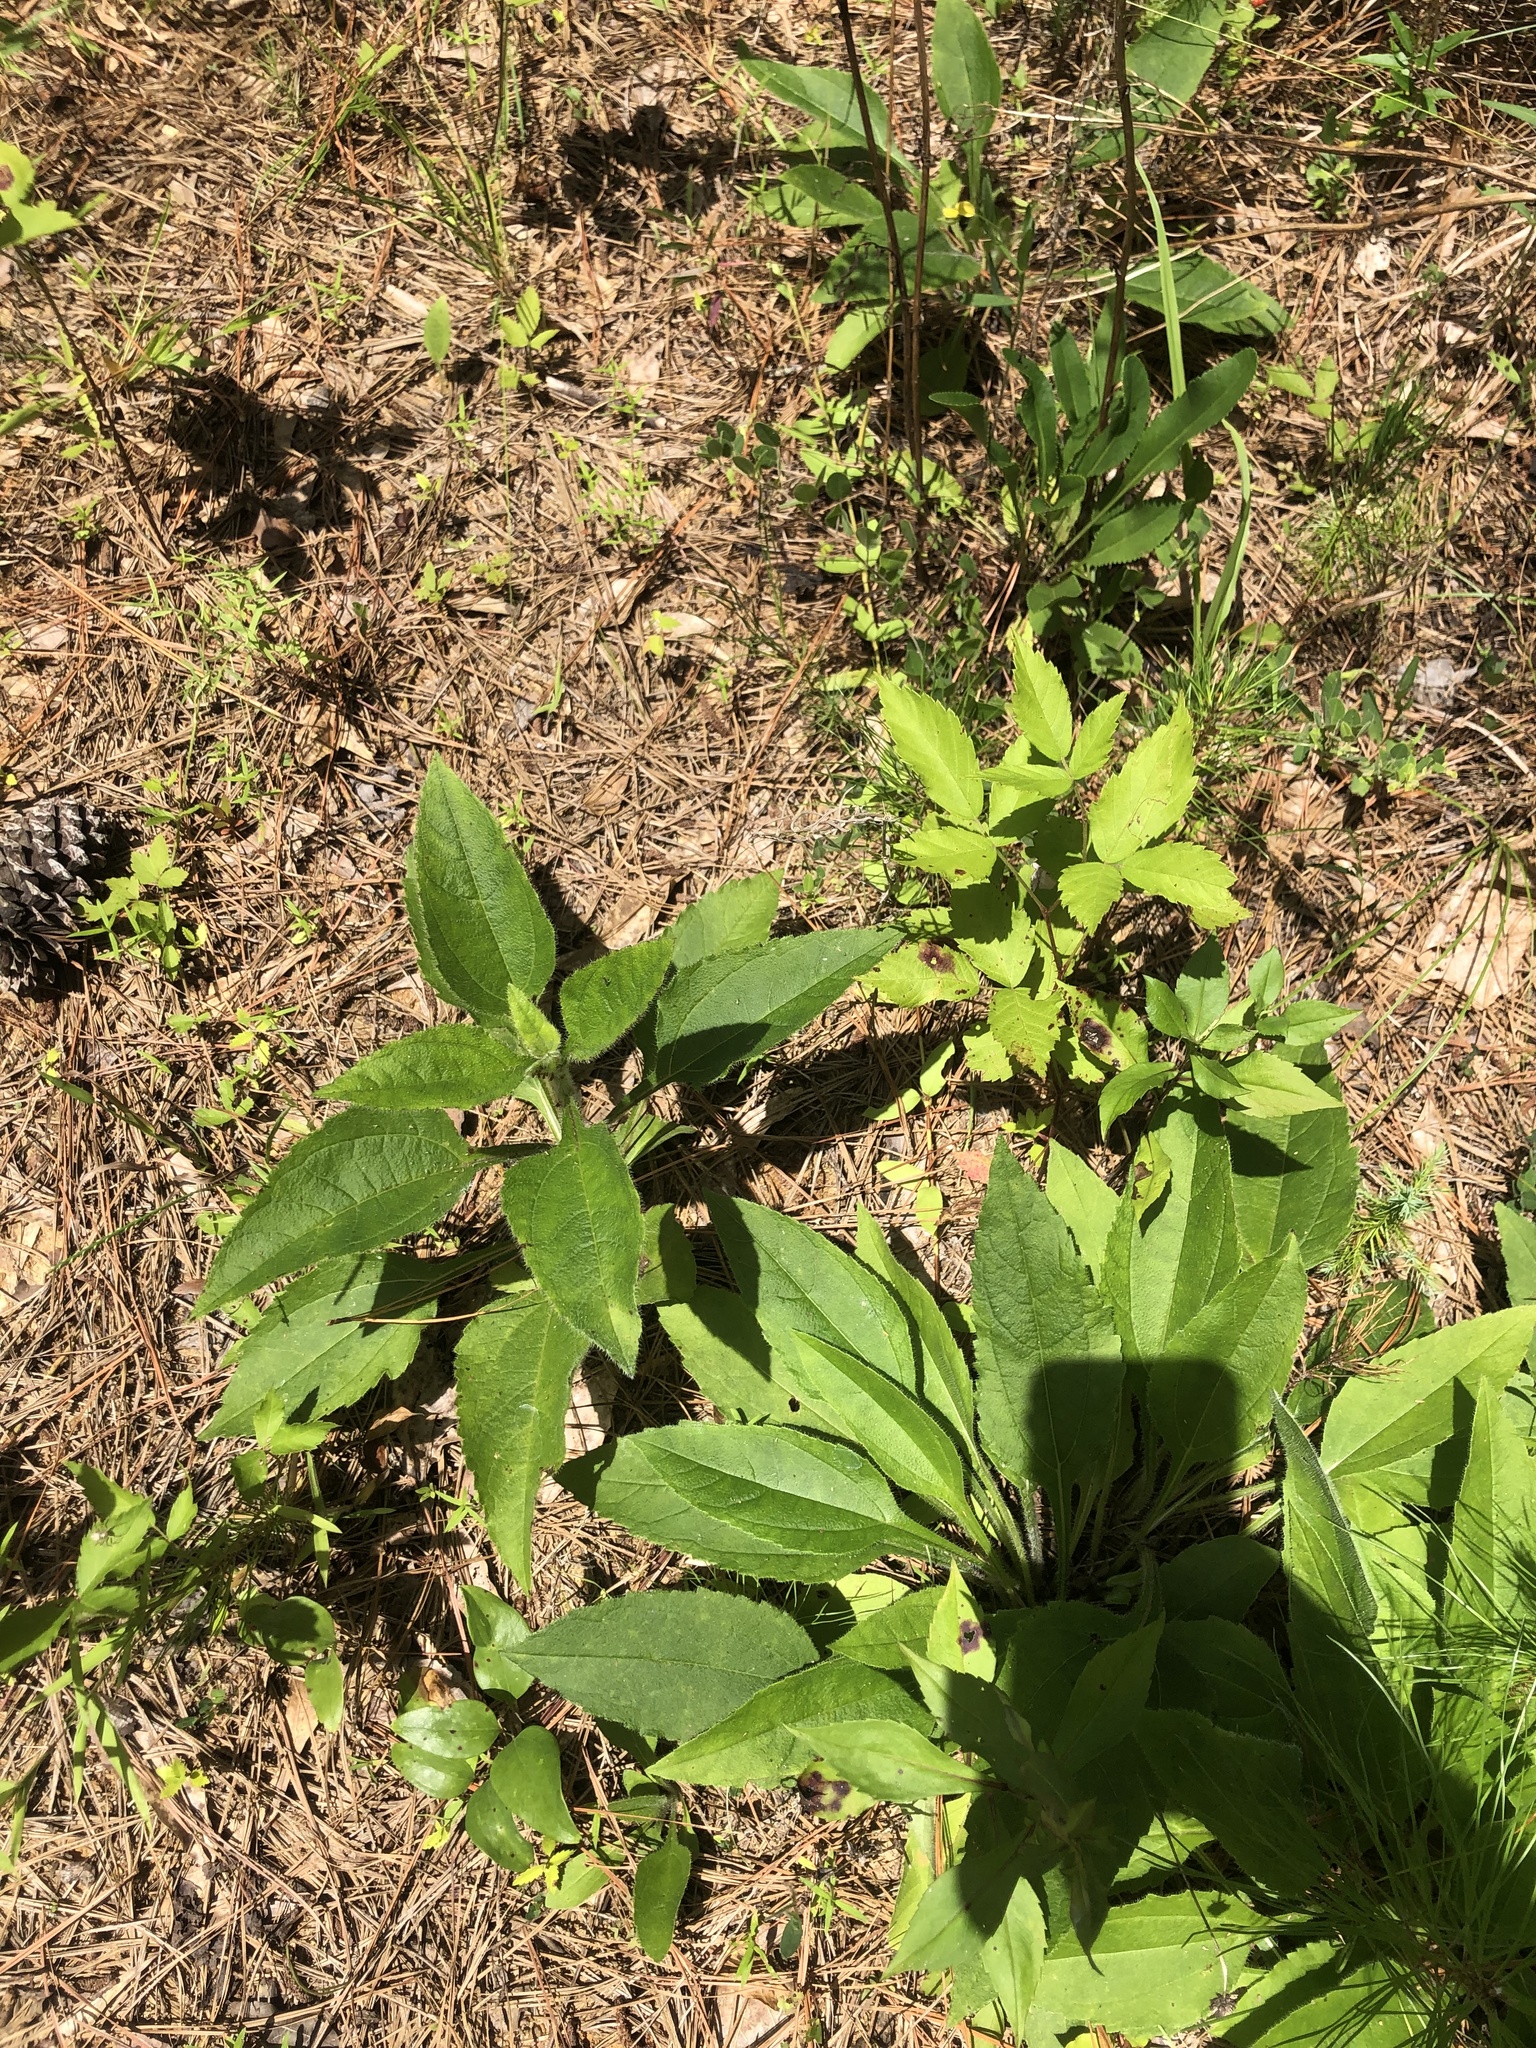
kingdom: Plantae
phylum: Tracheophyta
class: Magnoliopsida
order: Asterales
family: Asteraceae
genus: Helianthus
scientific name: Helianthus atrorubens
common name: Dark-eyed sunflower
